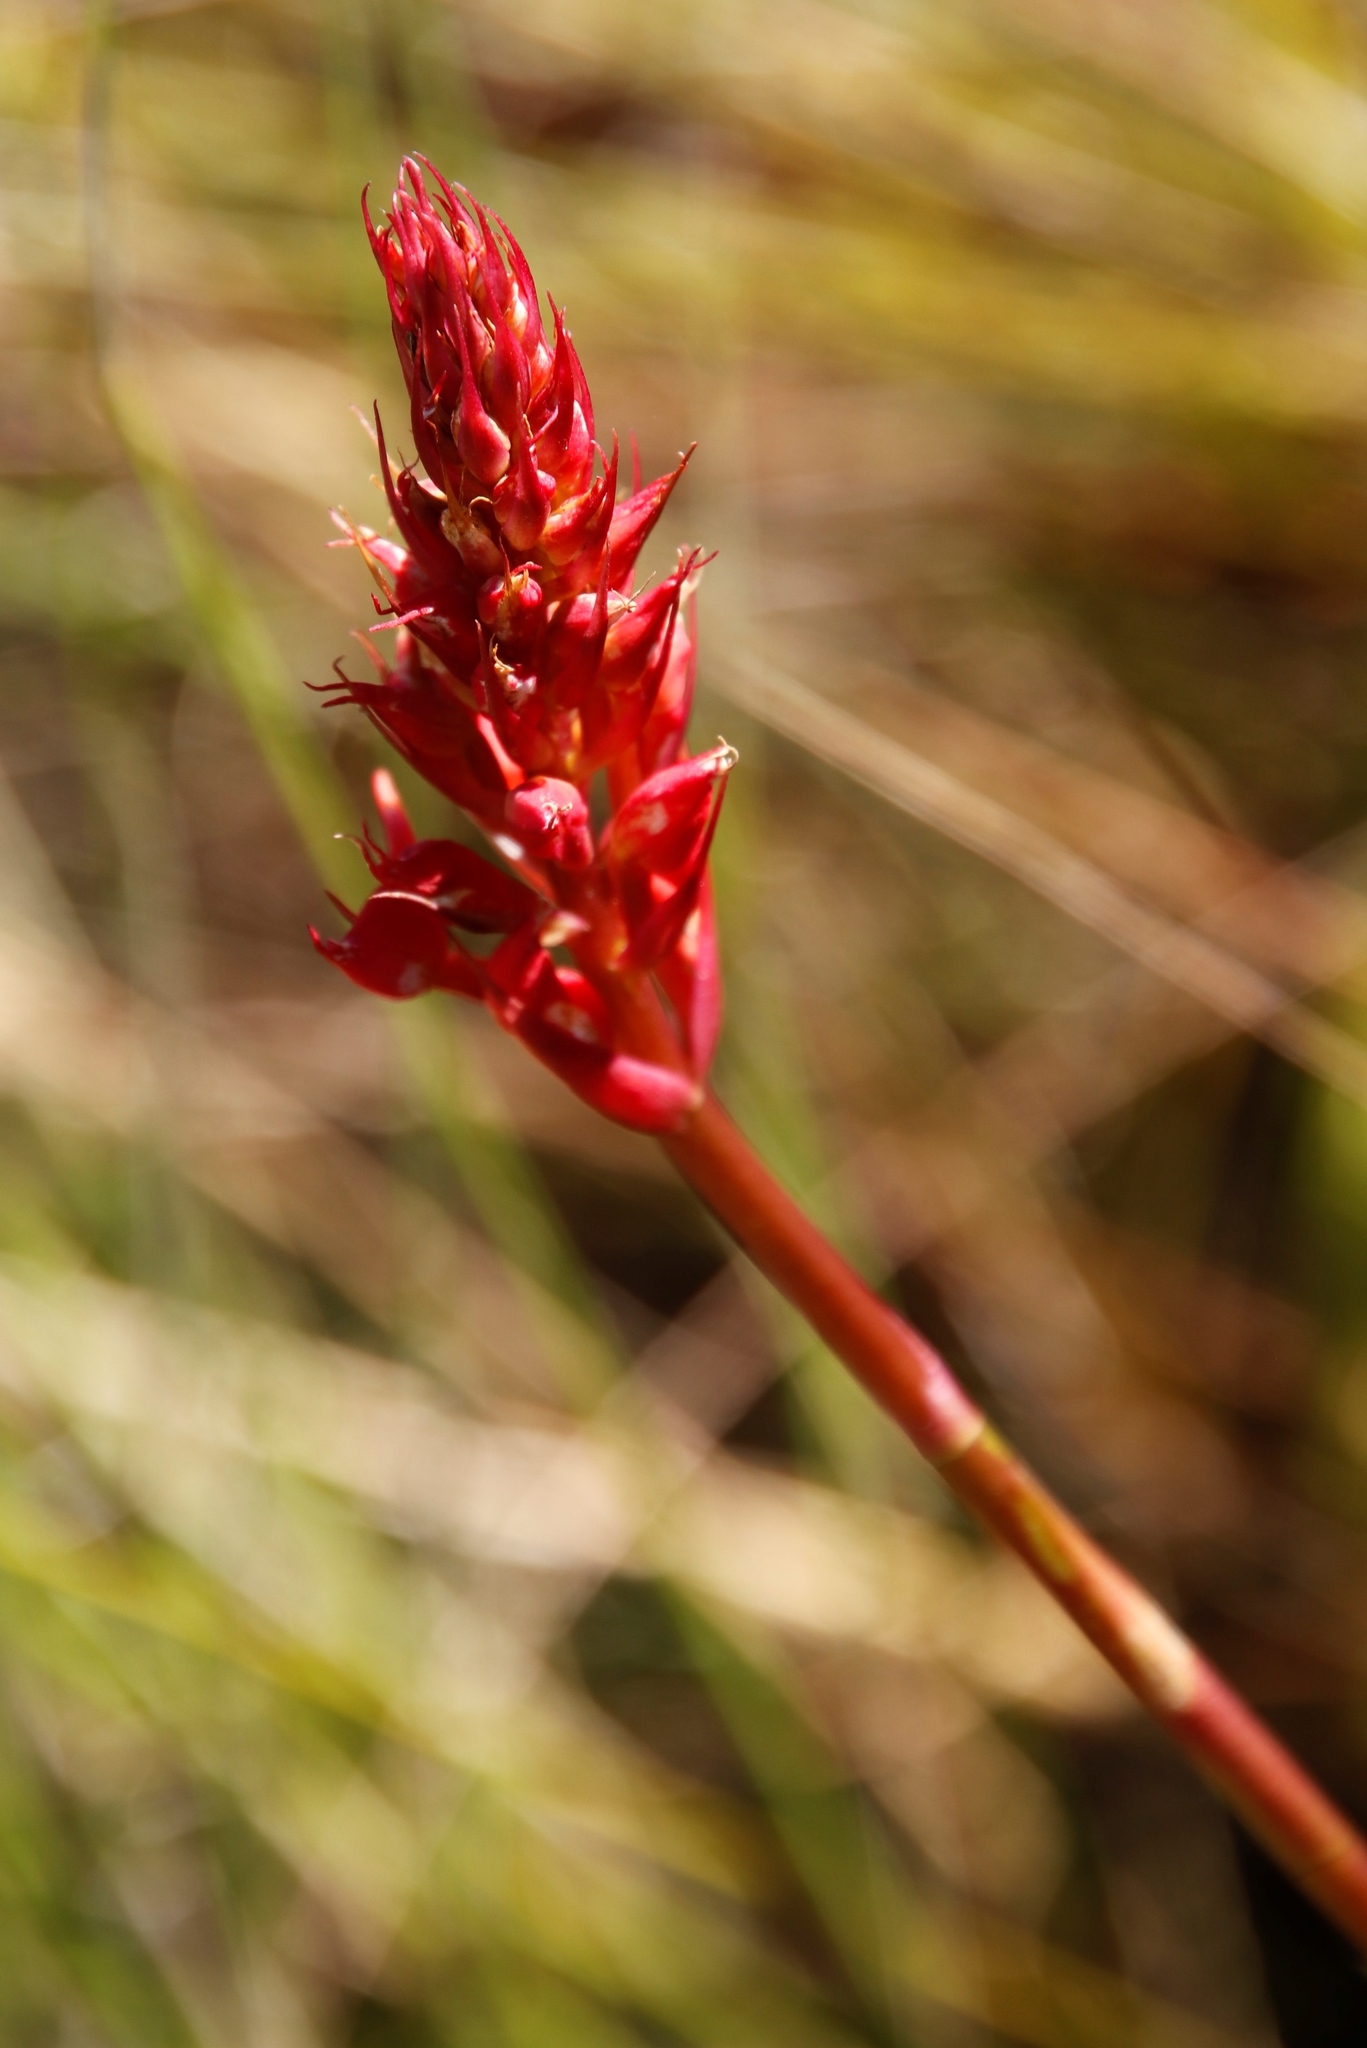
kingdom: Plantae
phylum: Tracheophyta
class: Liliopsida
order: Asparagales
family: Orchidaceae
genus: Disa
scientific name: Disa ferruginea
